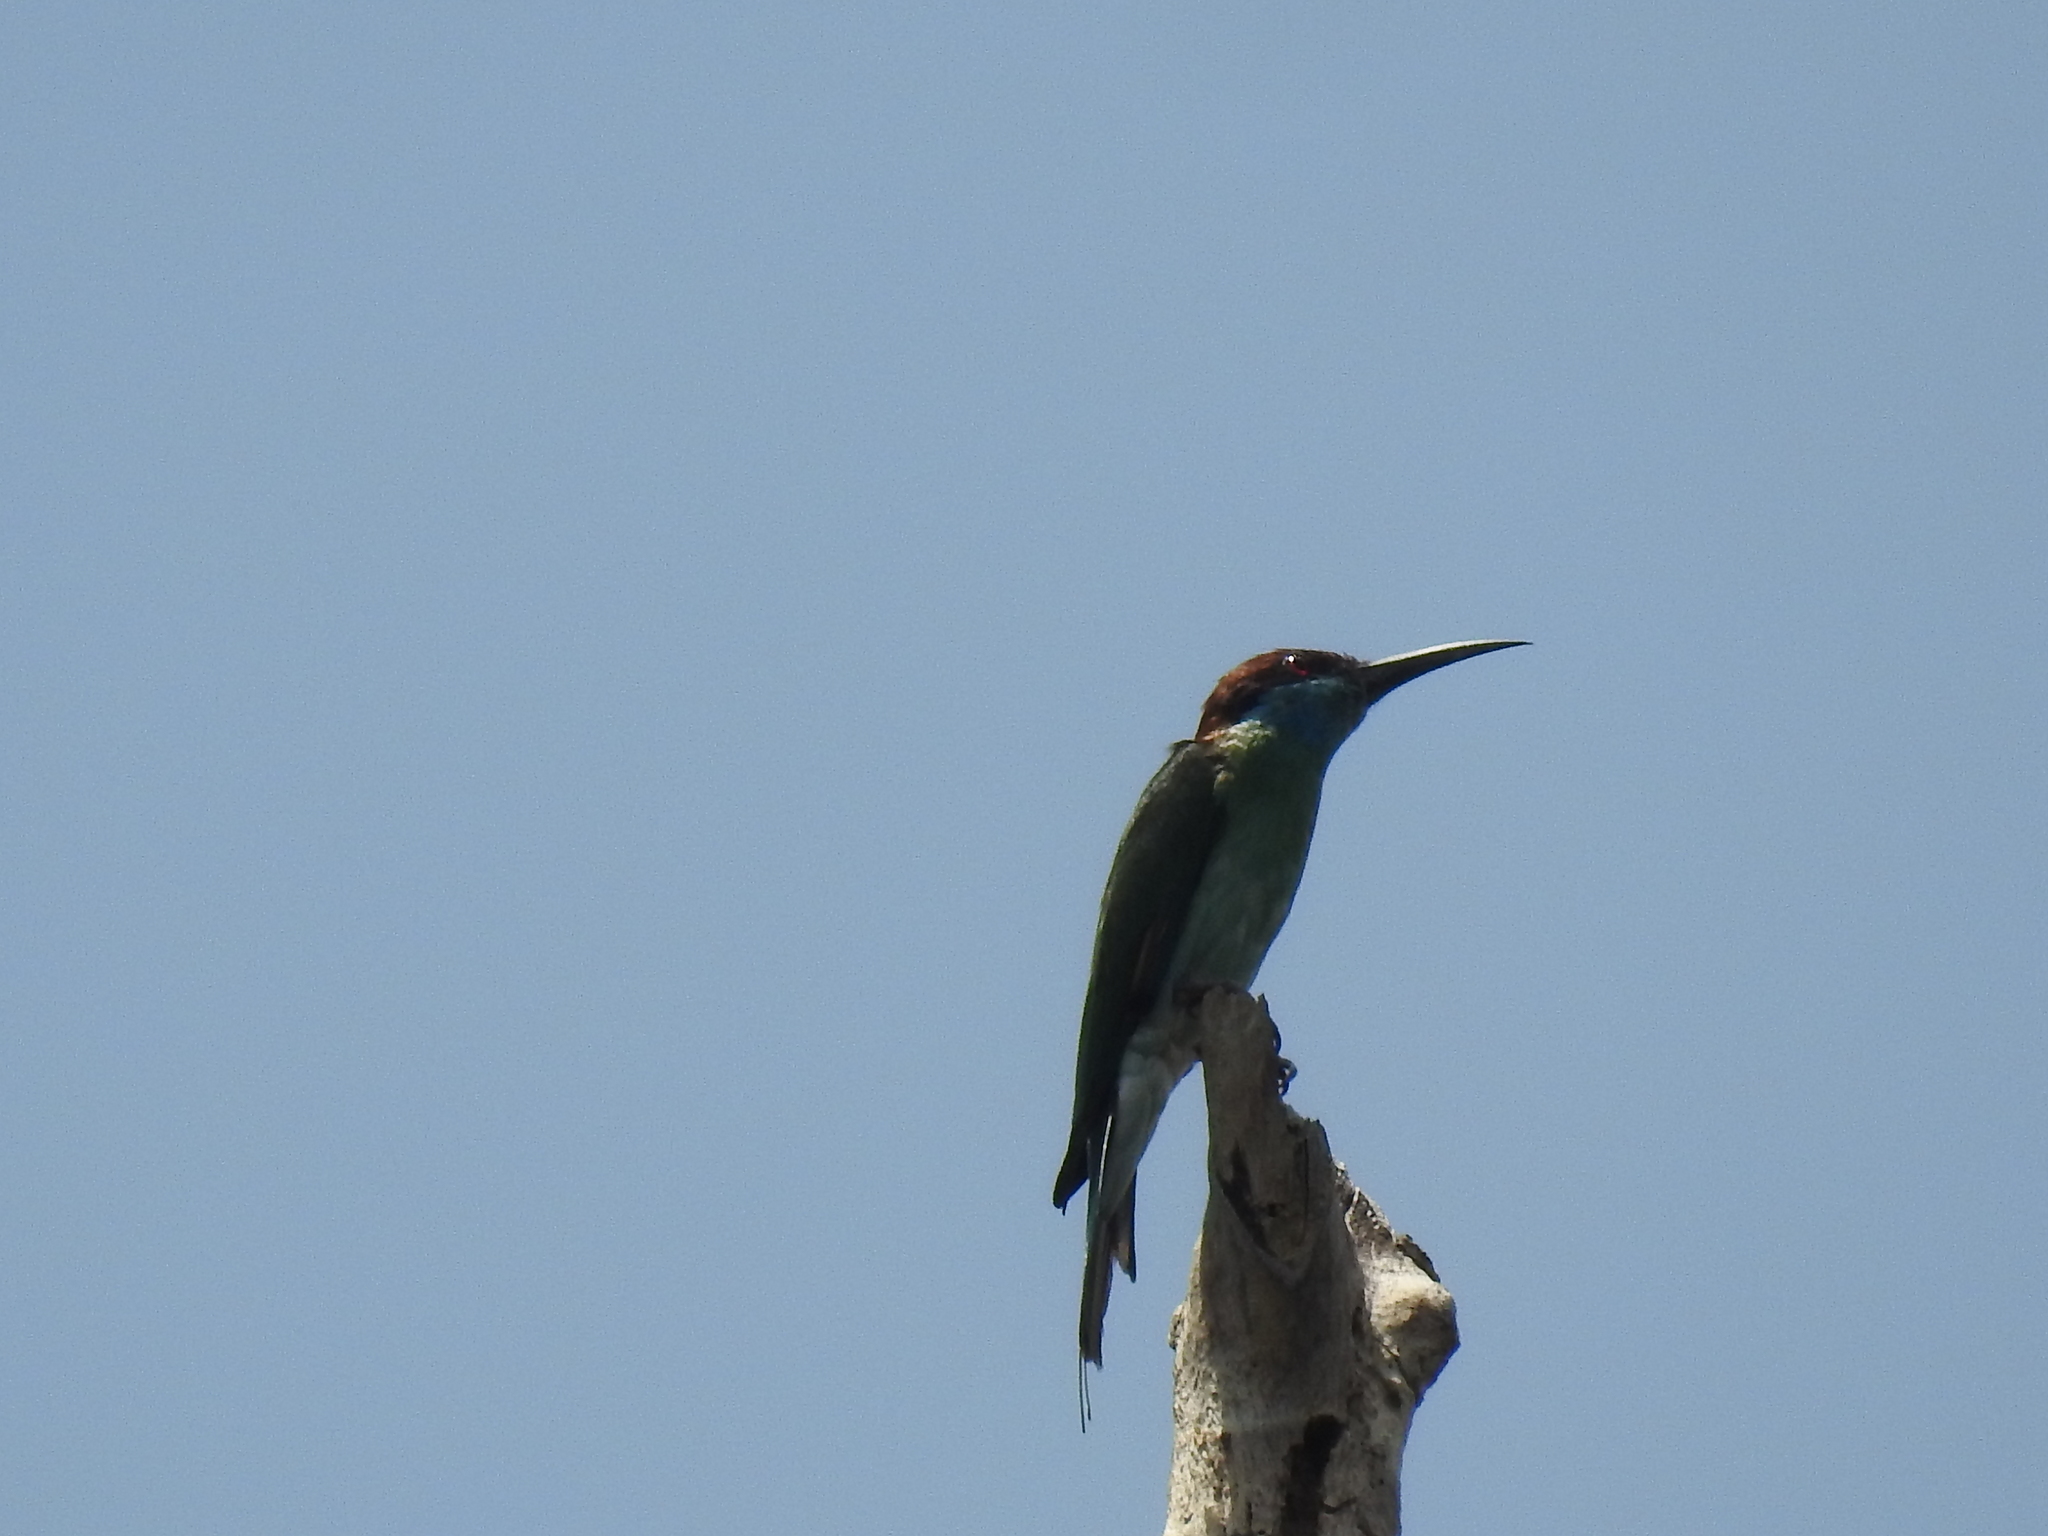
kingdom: Animalia
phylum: Chordata
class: Aves
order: Coraciiformes
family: Meropidae
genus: Merops
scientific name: Merops viridis
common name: Blue-throated bee-eater
